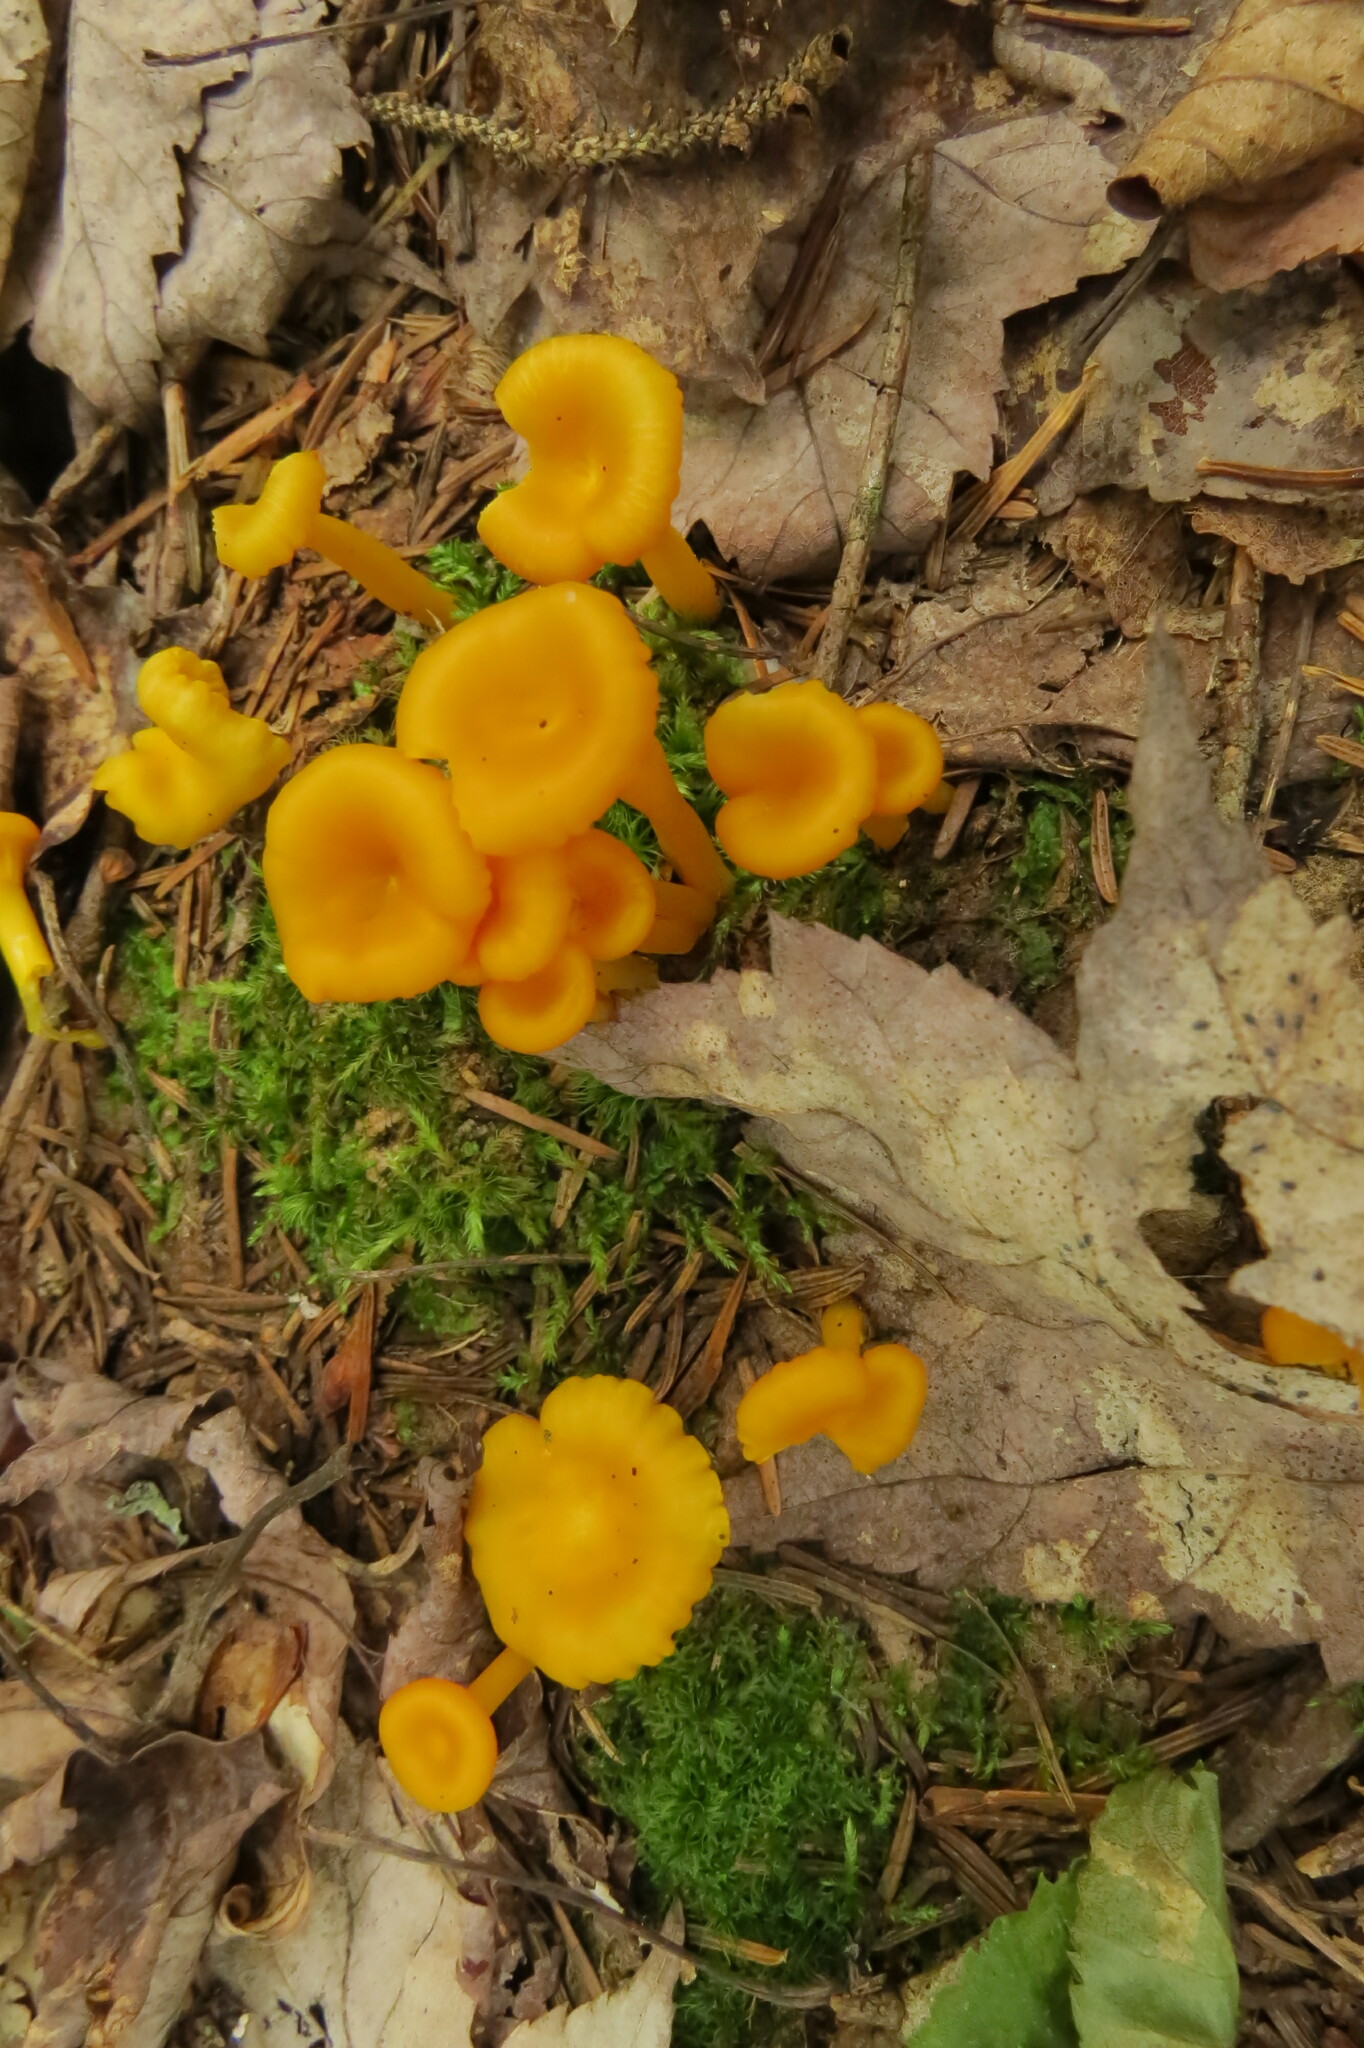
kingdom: Fungi
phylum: Basidiomycota
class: Agaricomycetes
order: Agaricales
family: Hygrophoraceae
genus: Gloioxanthomyces
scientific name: Gloioxanthomyces nitidus
